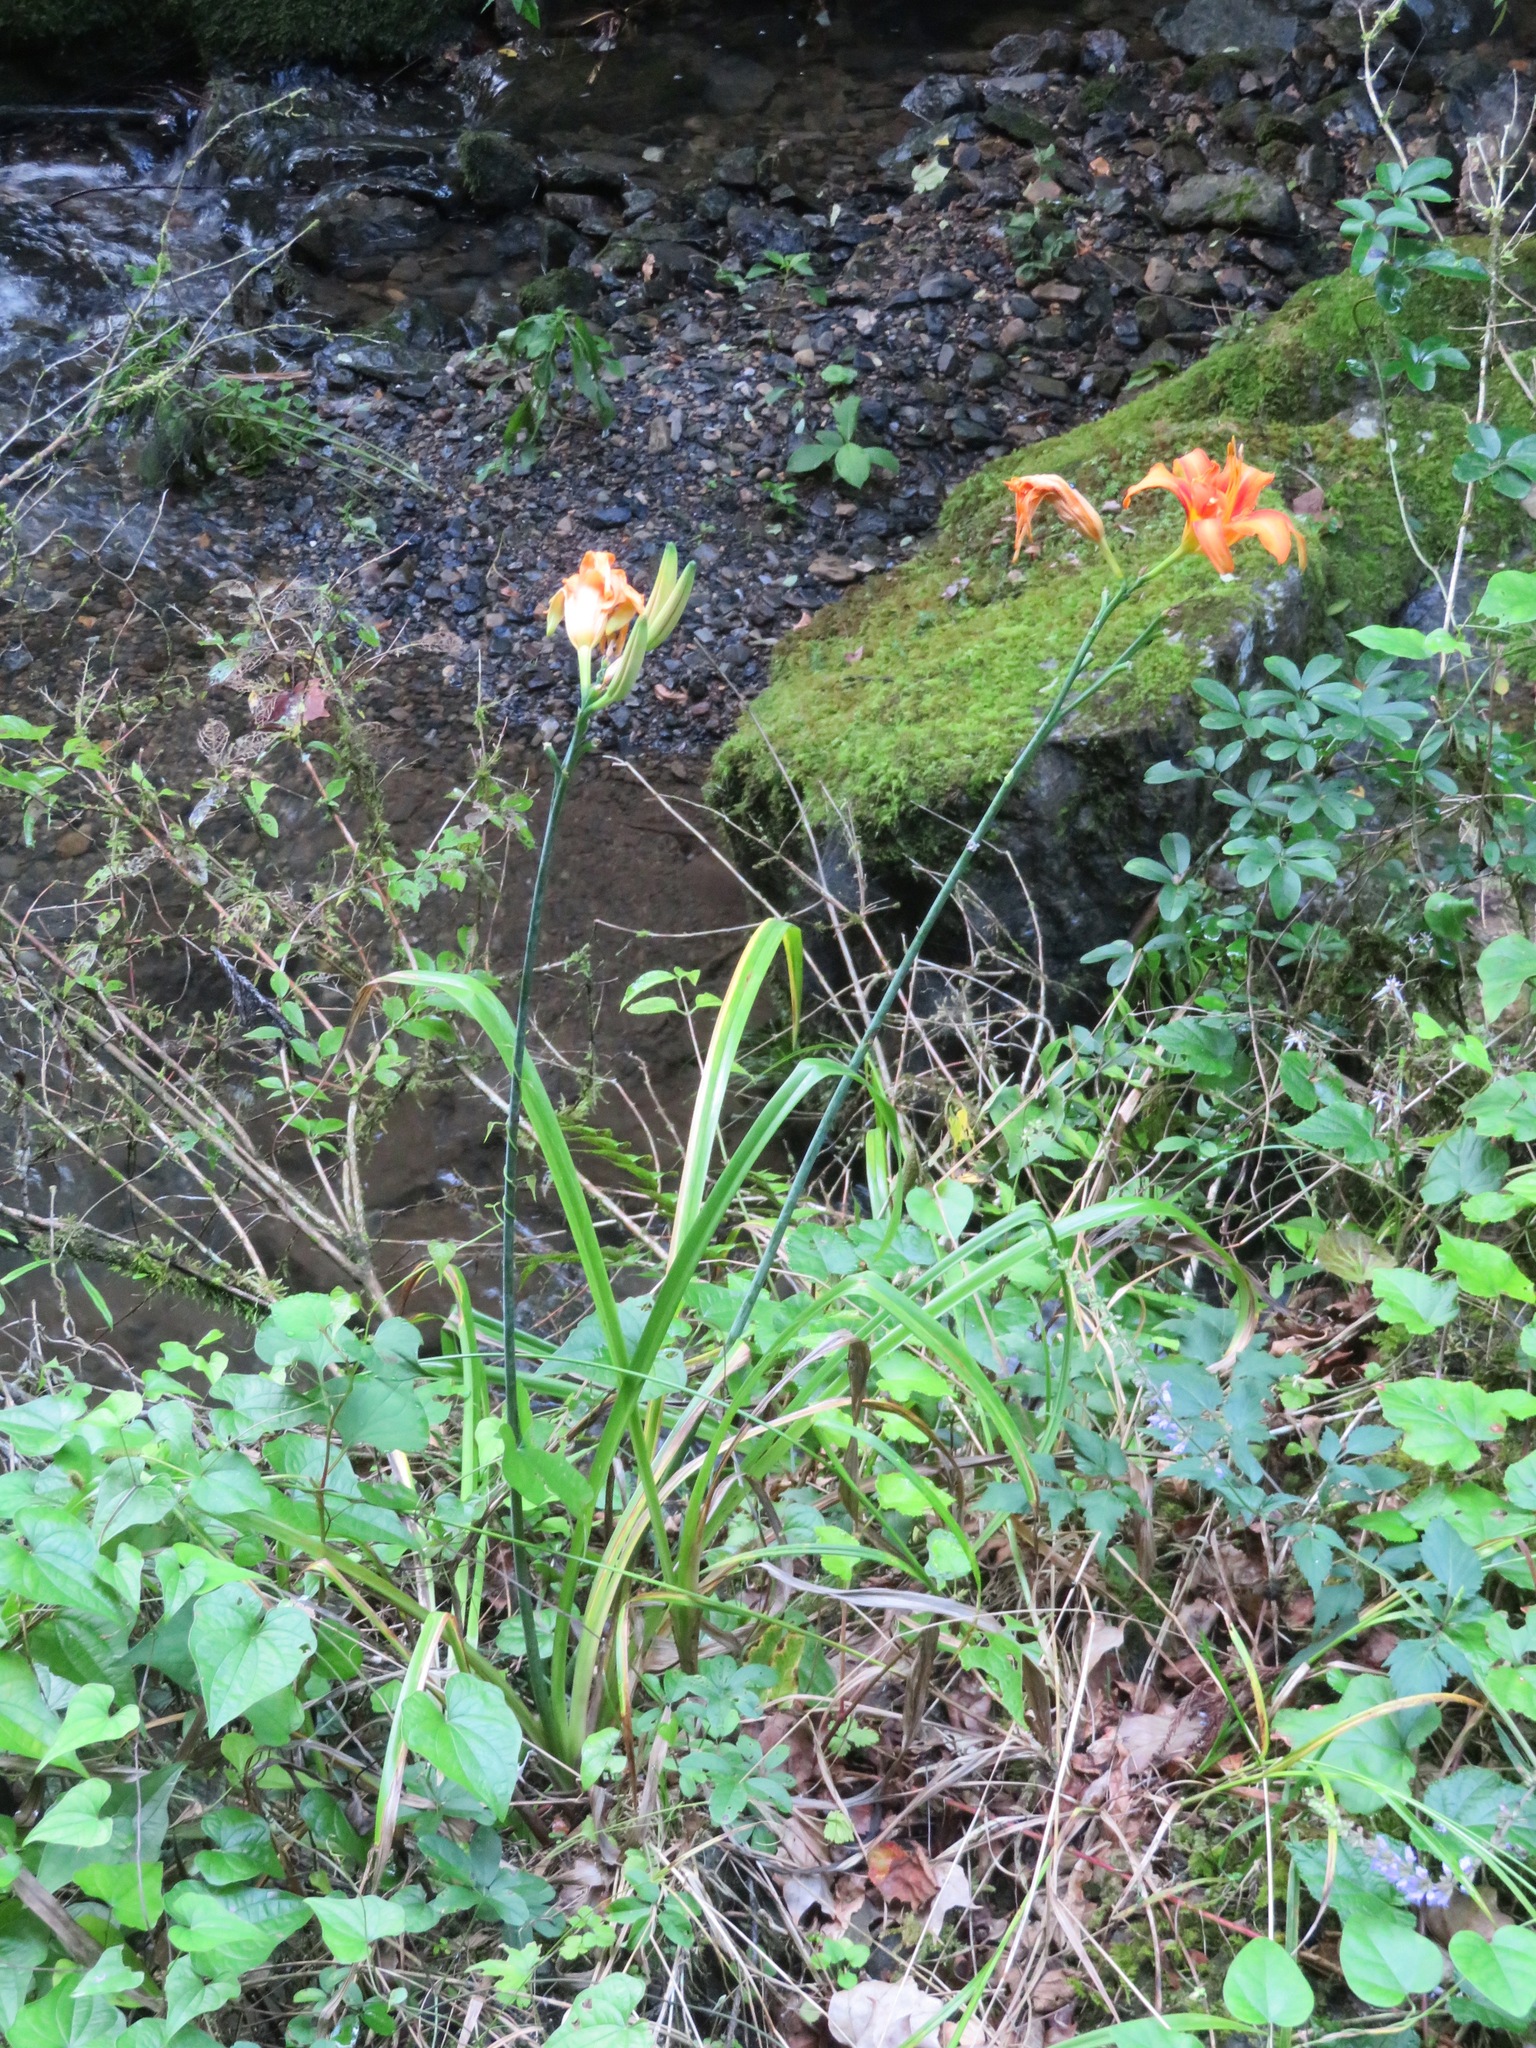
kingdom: Plantae
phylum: Tracheophyta
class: Liliopsida
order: Asparagales
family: Asphodelaceae
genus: Hemerocallis
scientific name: Hemerocallis fulva
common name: Orange day-lily
